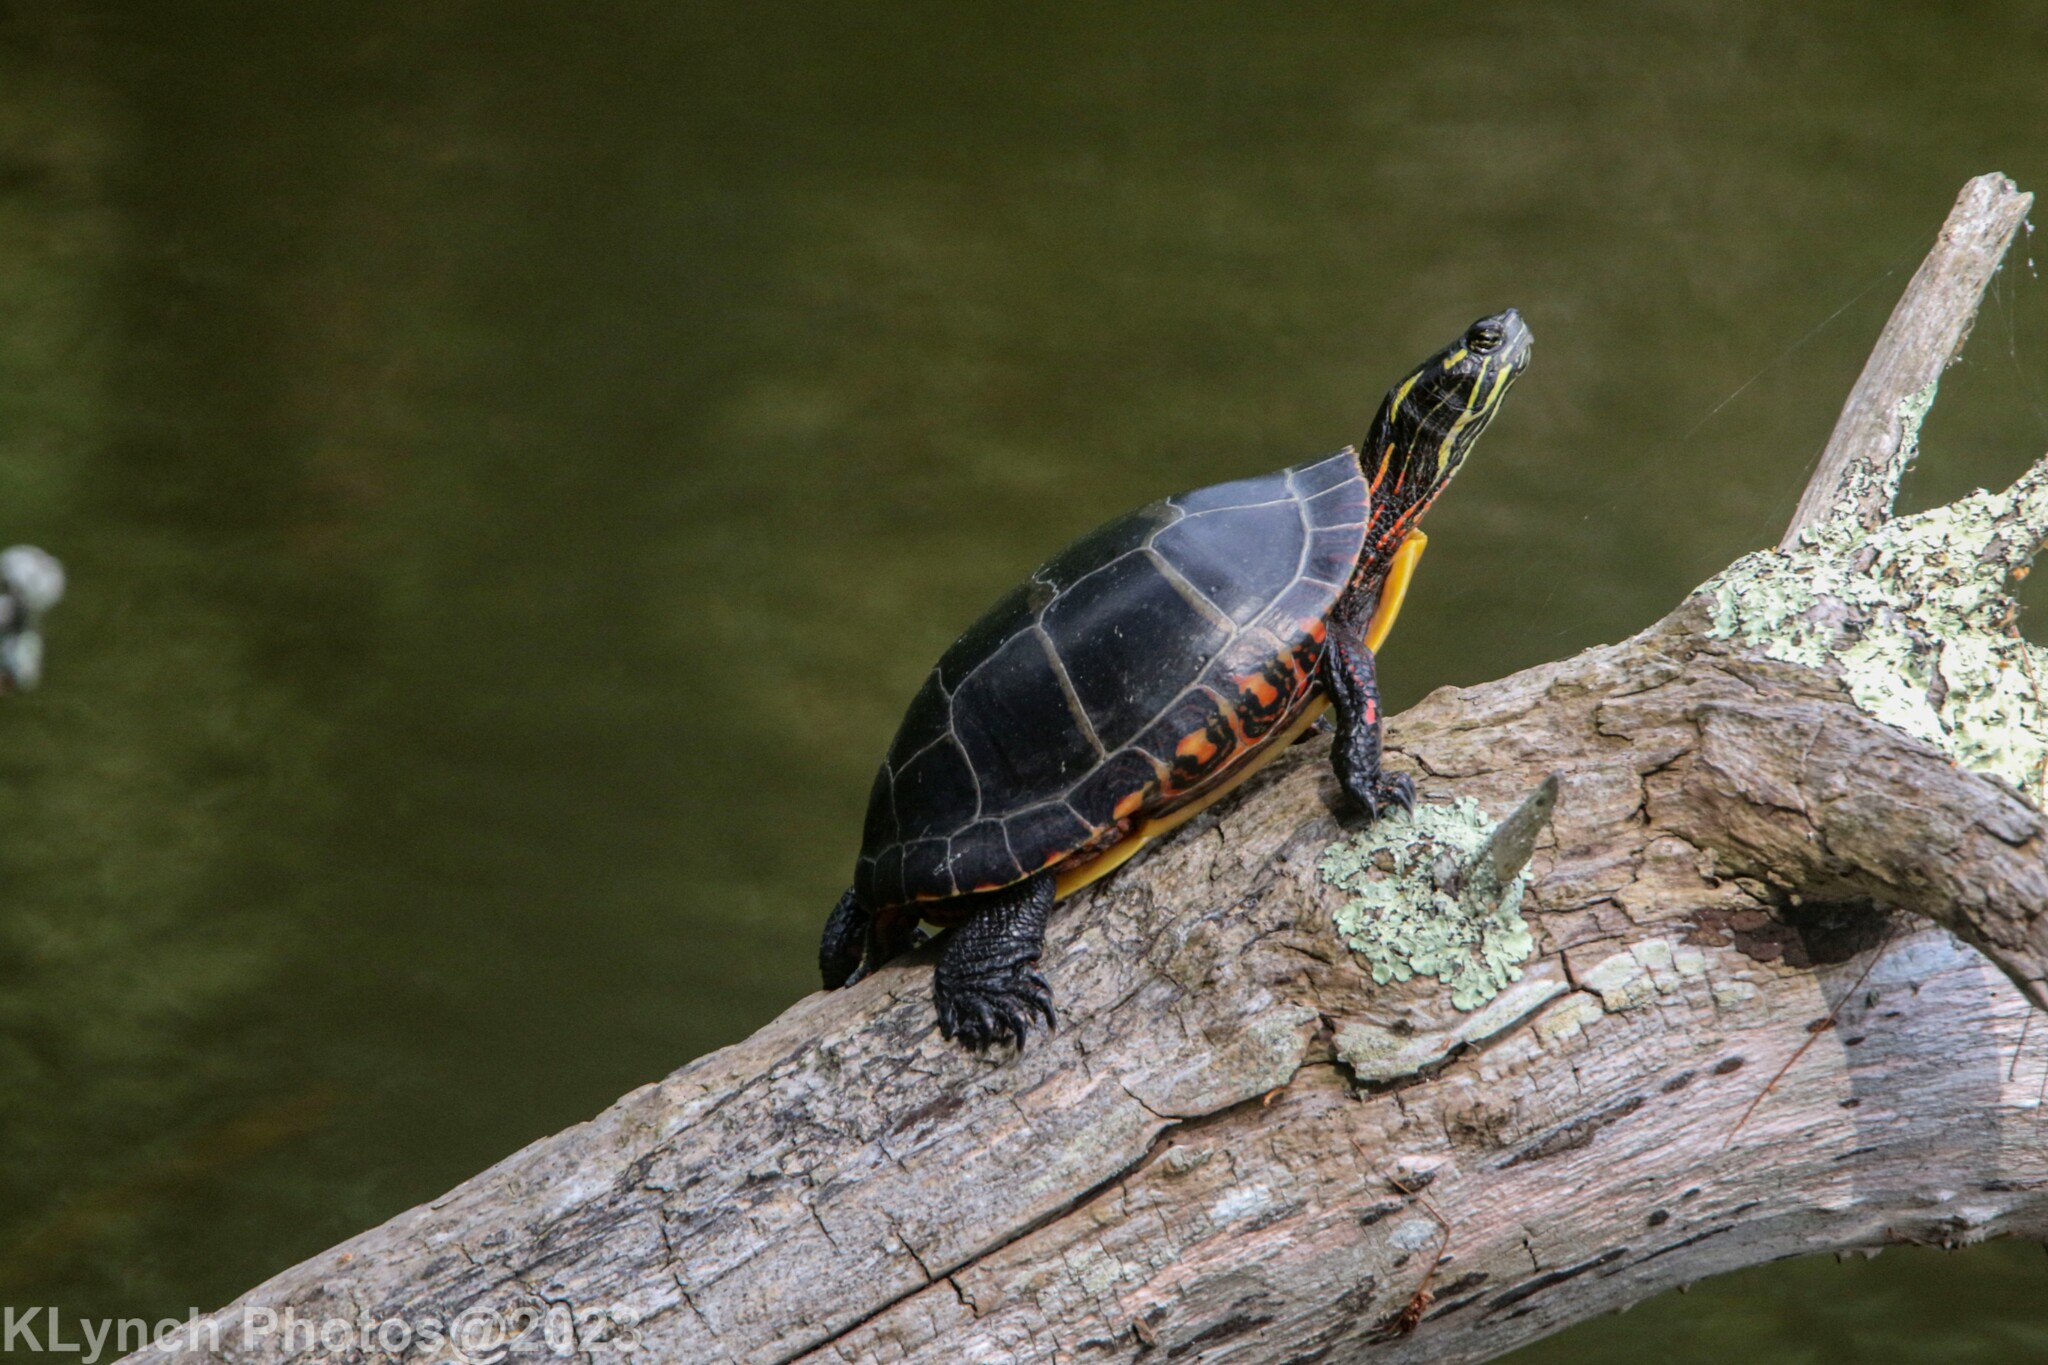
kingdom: Animalia
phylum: Chordata
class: Testudines
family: Emydidae
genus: Chrysemys
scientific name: Chrysemys picta
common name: Painted turtle
